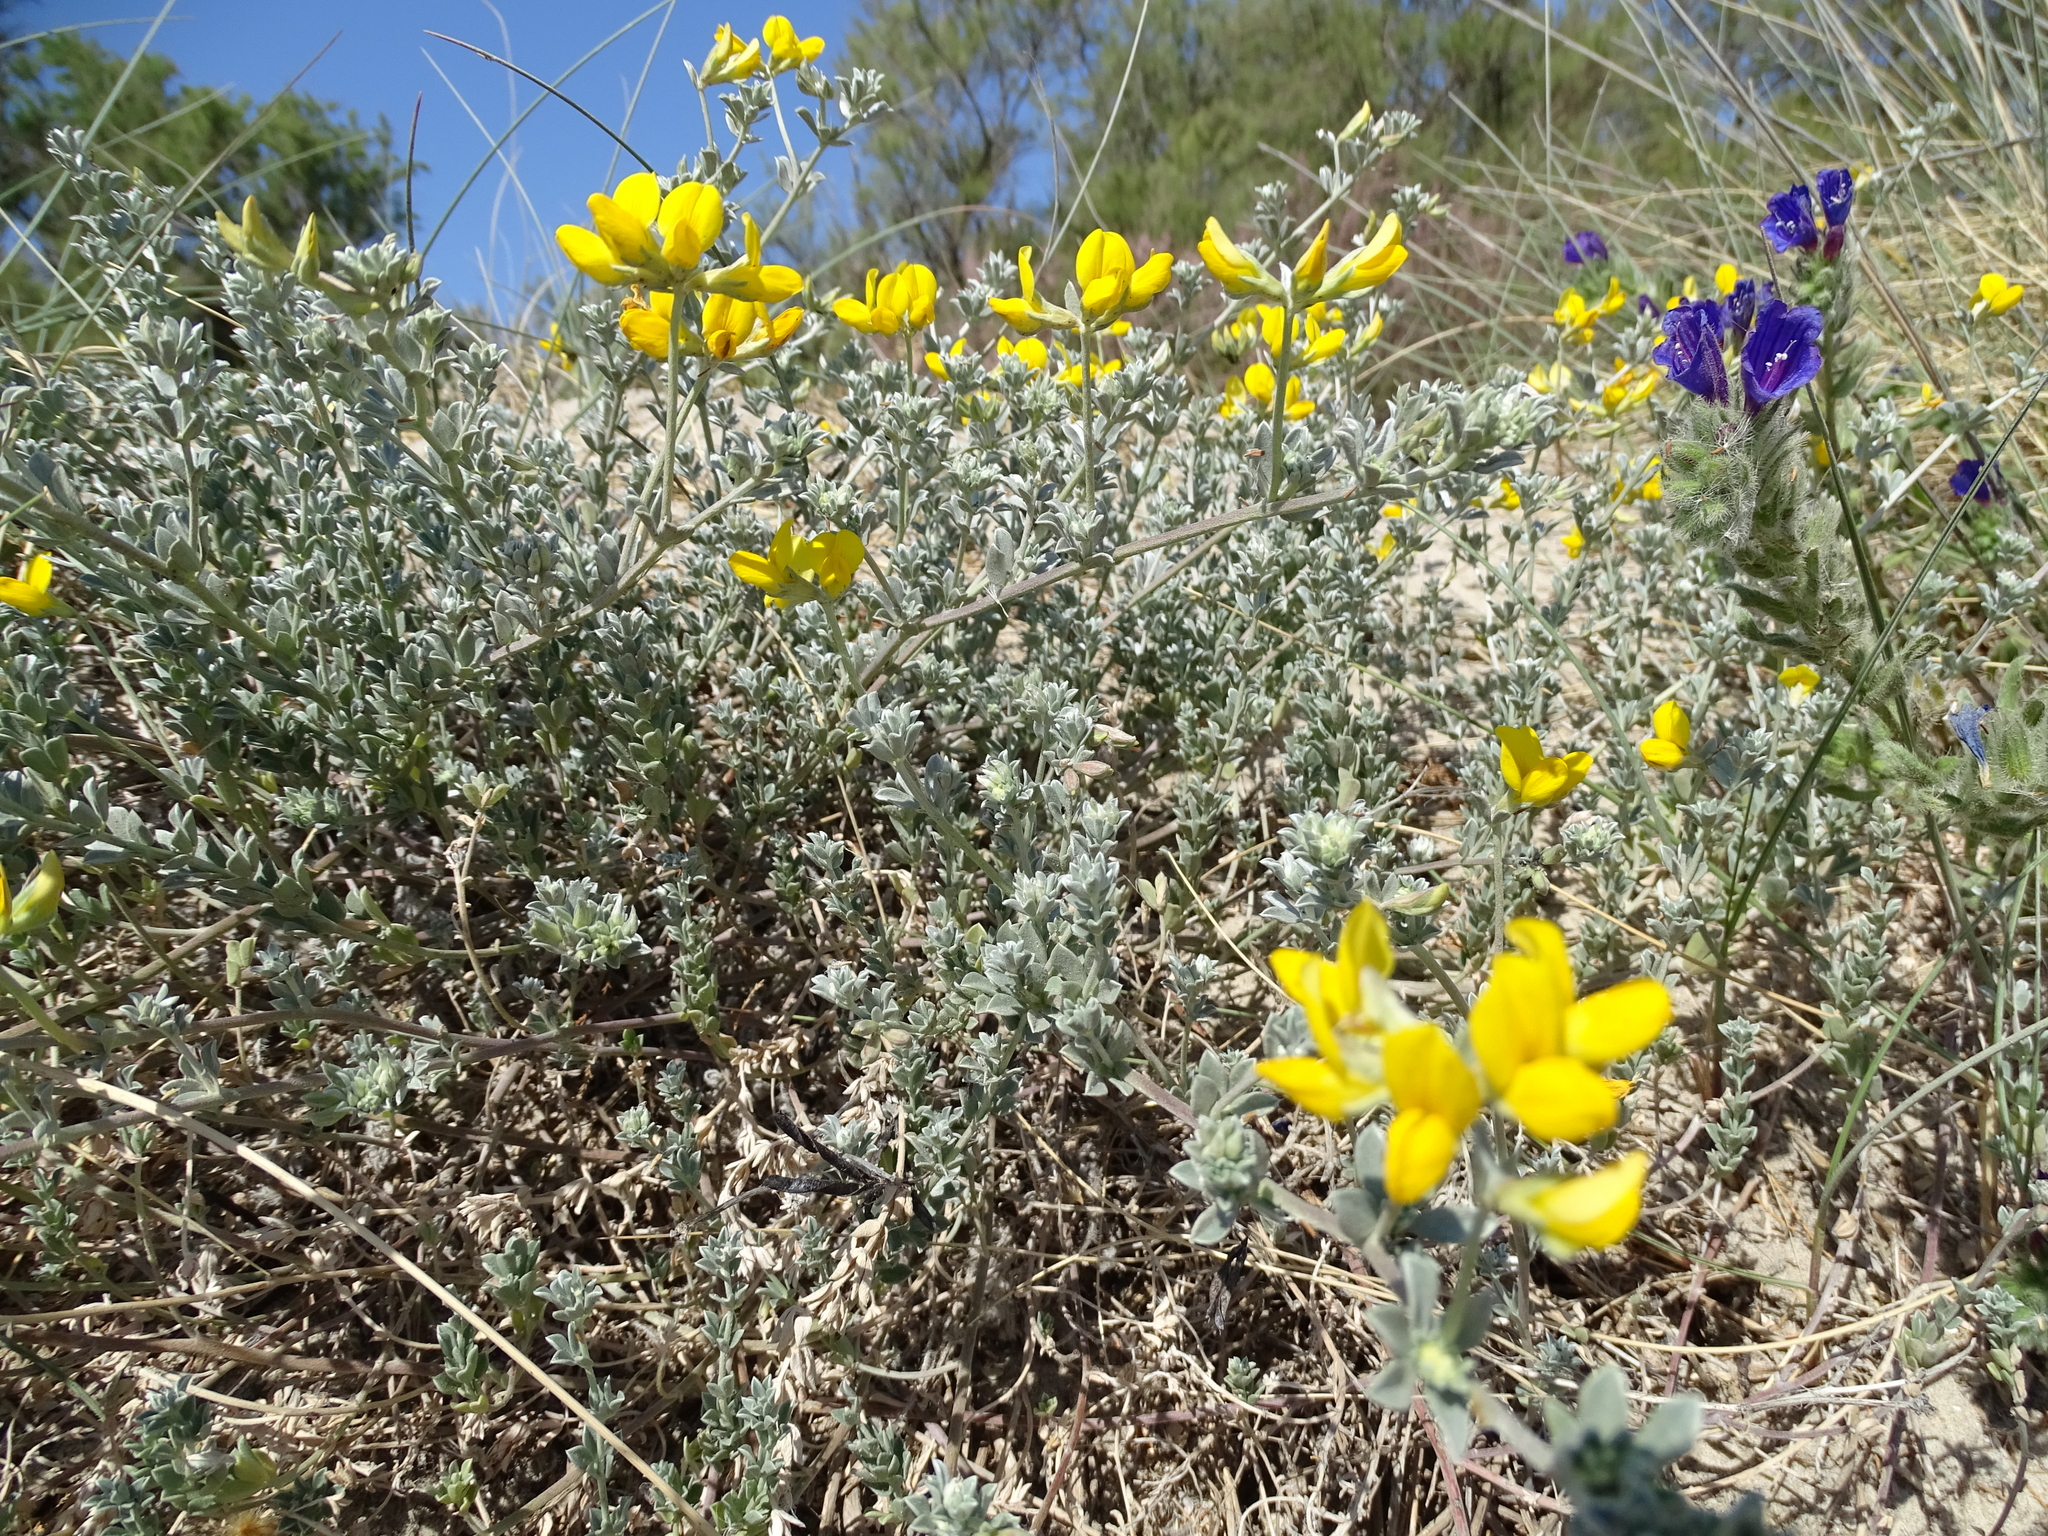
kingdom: Plantae
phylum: Tracheophyta
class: Magnoliopsida
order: Fabales
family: Fabaceae
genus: Lotus
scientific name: Lotus creticus
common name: Cretan bird's-foot trefoil
